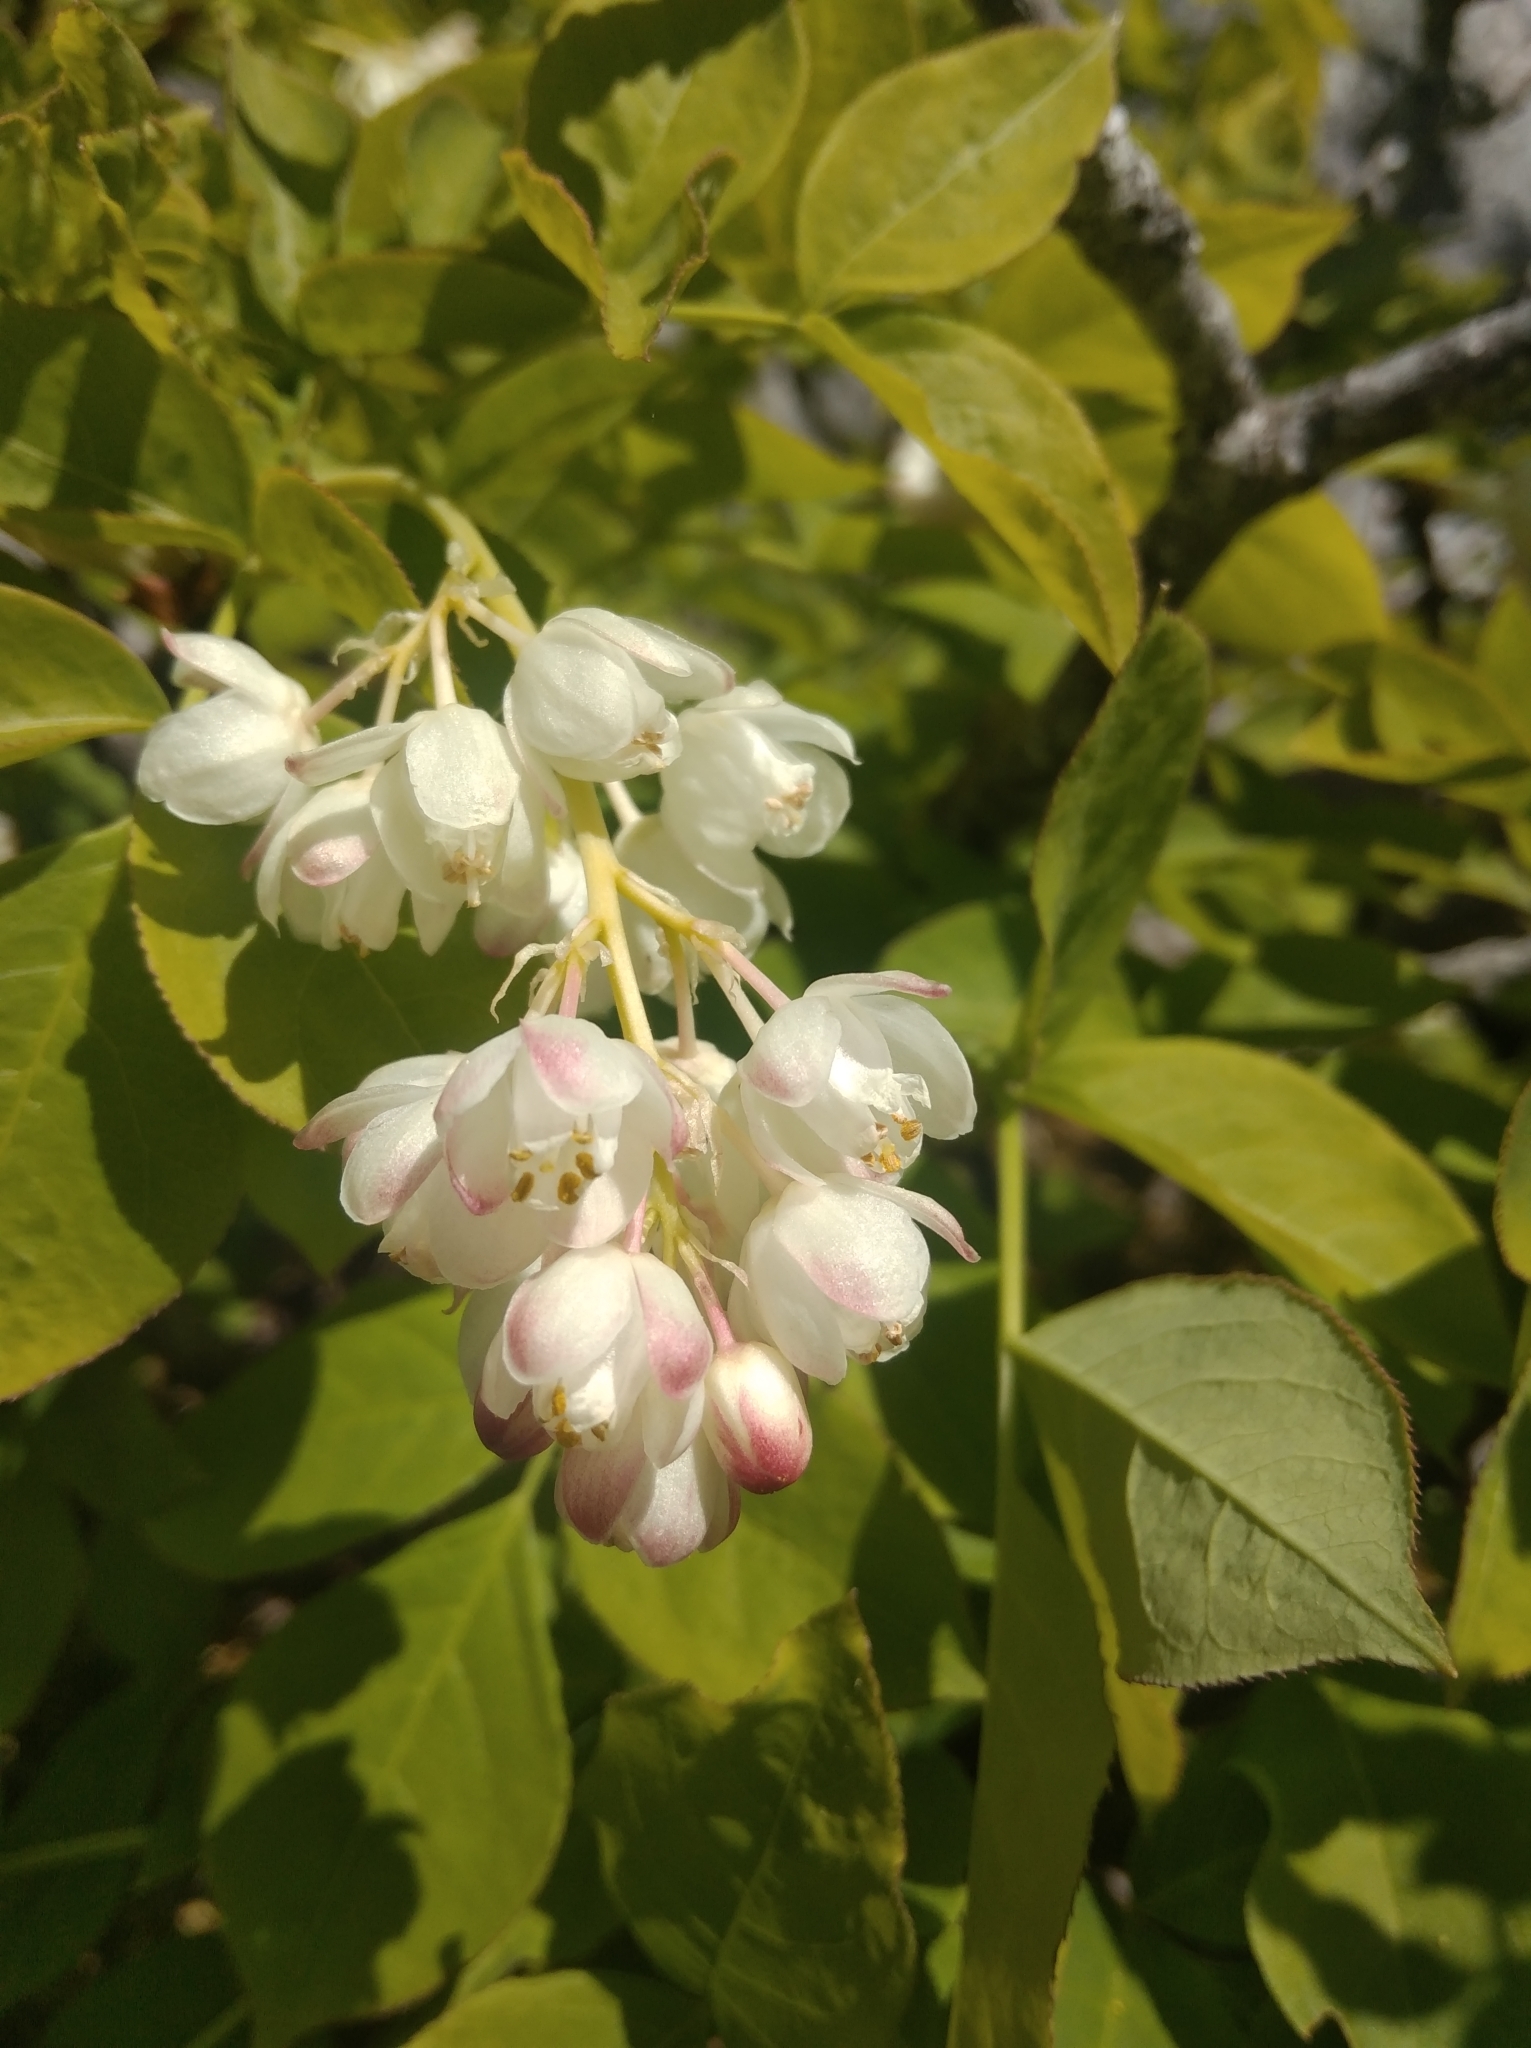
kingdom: Plantae
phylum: Tracheophyta
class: Magnoliopsida
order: Crossosomatales
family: Staphyleaceae
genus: Staphylea
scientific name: Staphylea pinnata
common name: Bladdernut
